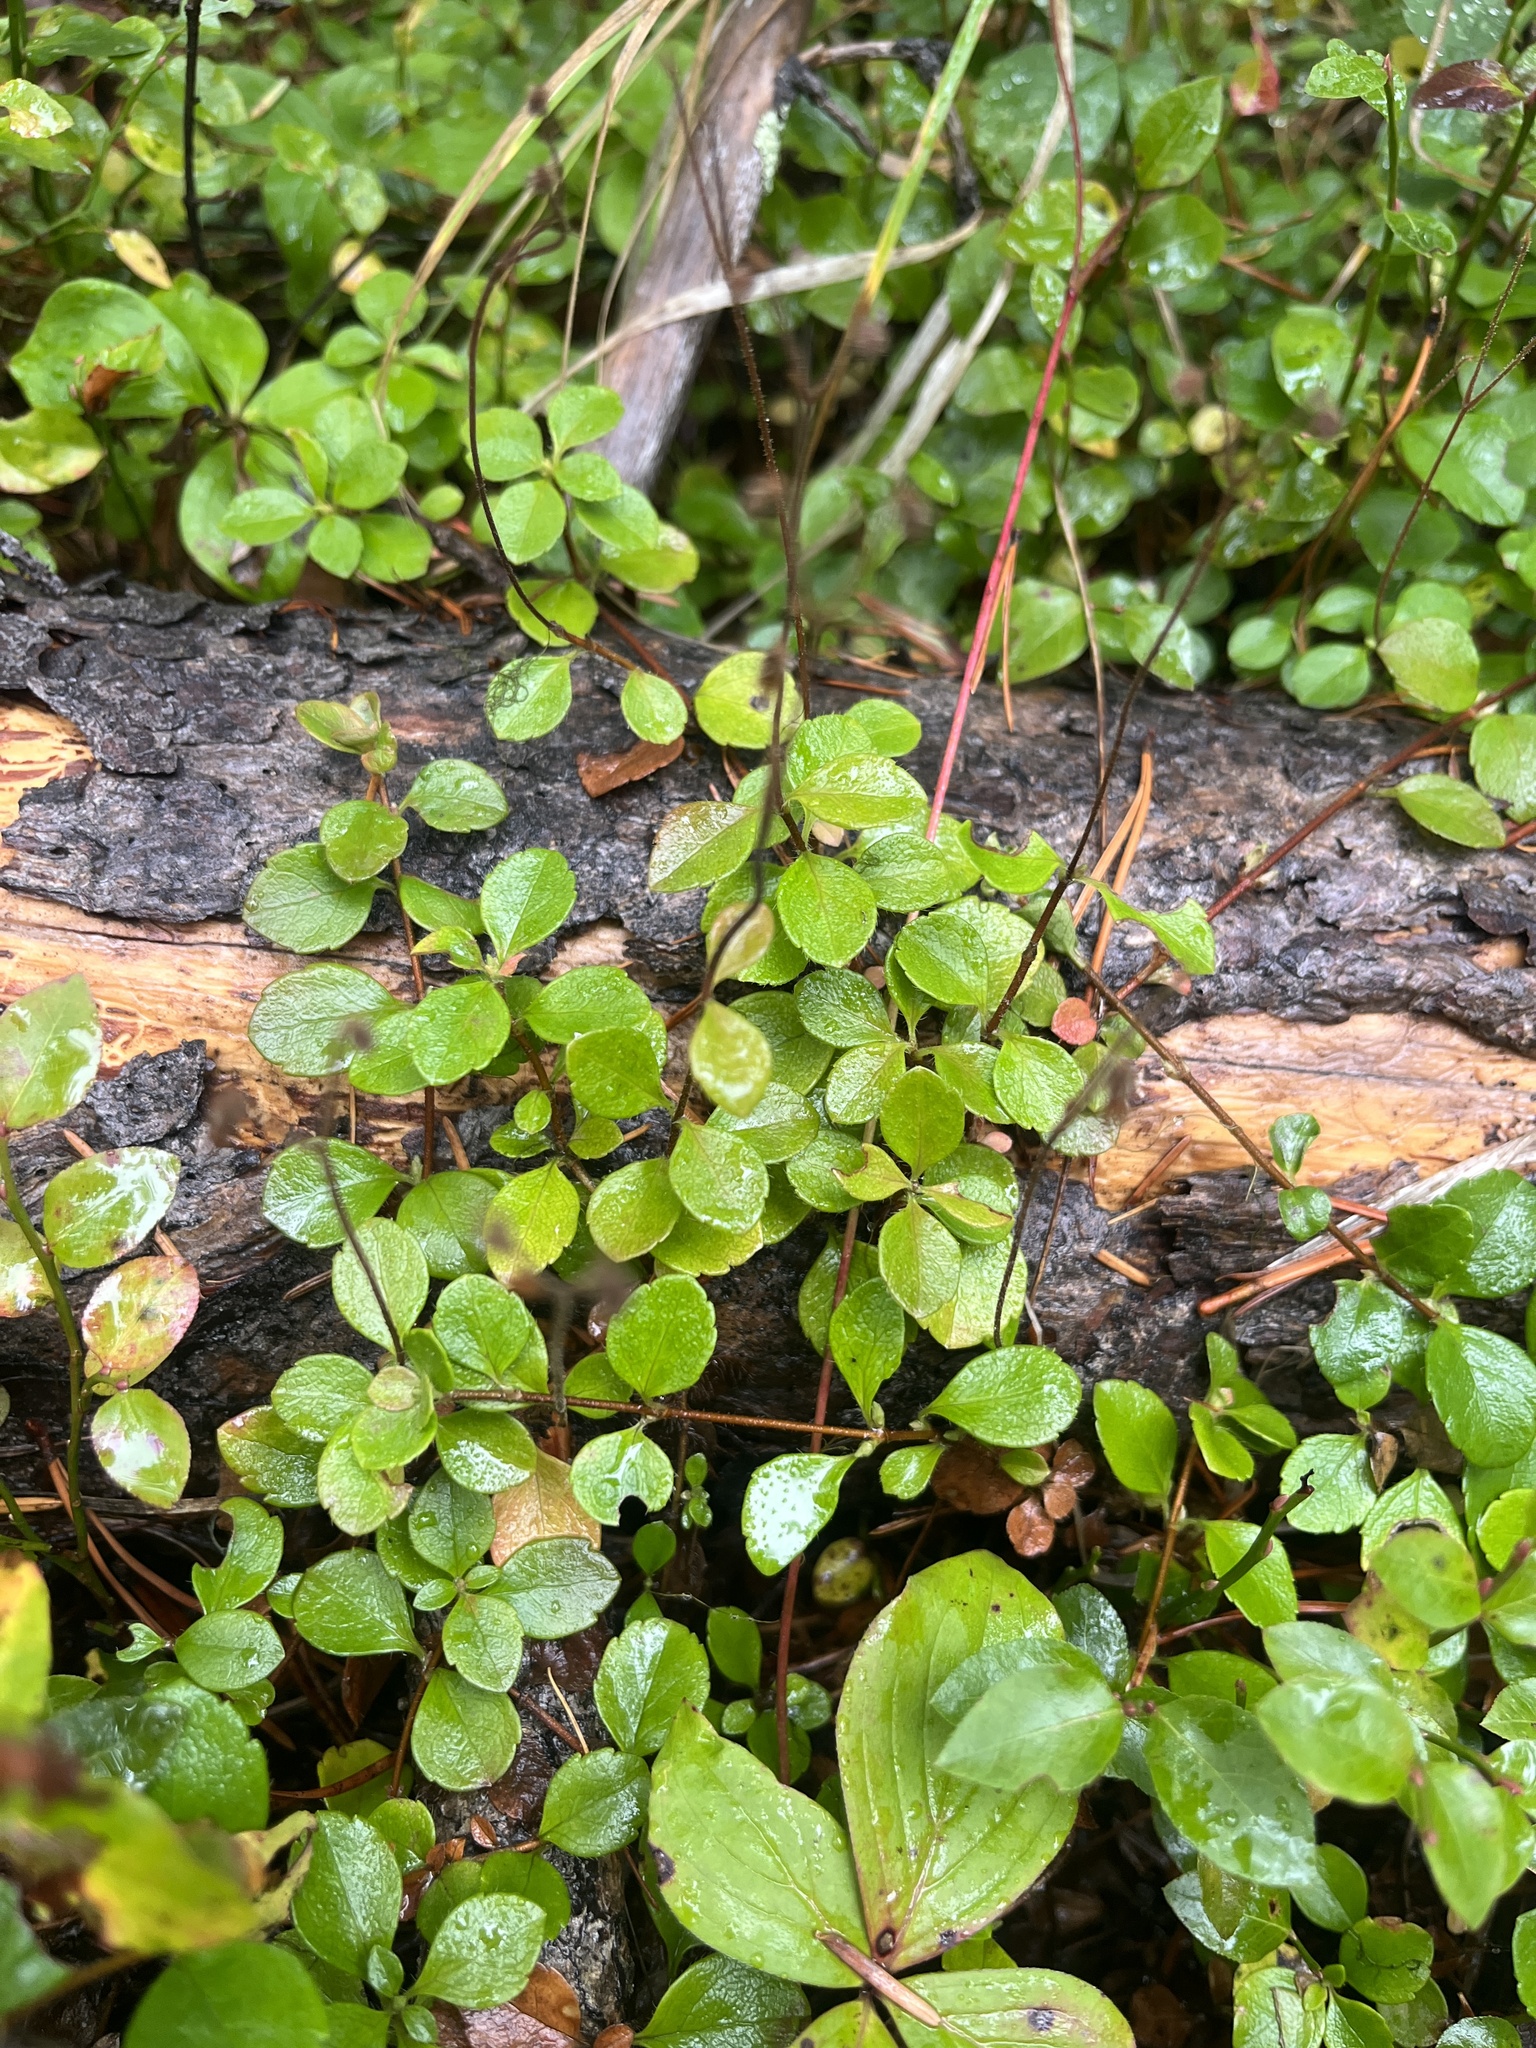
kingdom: Plantae
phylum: Tracheophyta
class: Magnoliopsida
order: Dipsacales
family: Caprifoliaceae
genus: Linnaea
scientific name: Linnaea borealis
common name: Twinflower
